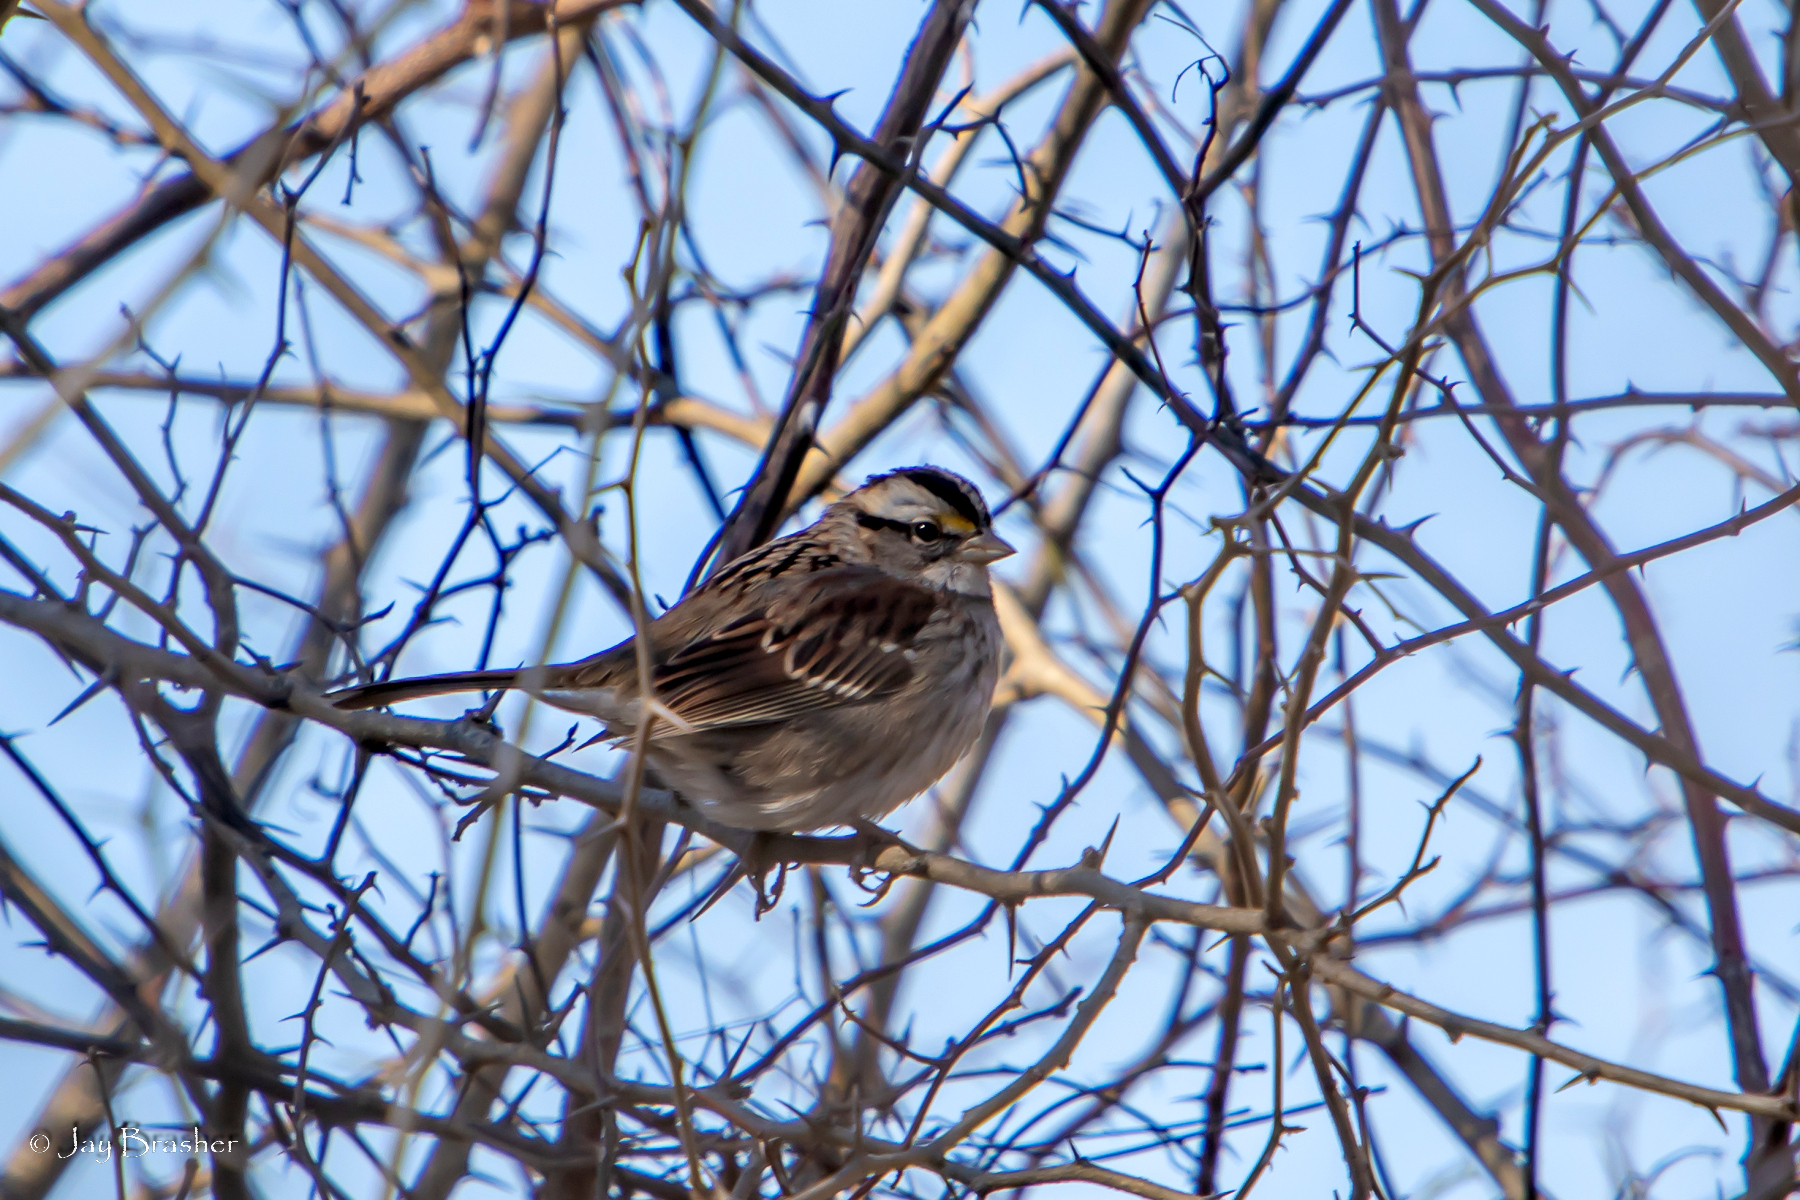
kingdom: Animalia
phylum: Chordata
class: Aves
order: Passeriformes
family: Passerellidae
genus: Zonotrichia
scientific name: Zonotrichia albicollis
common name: White-throated sparrow
